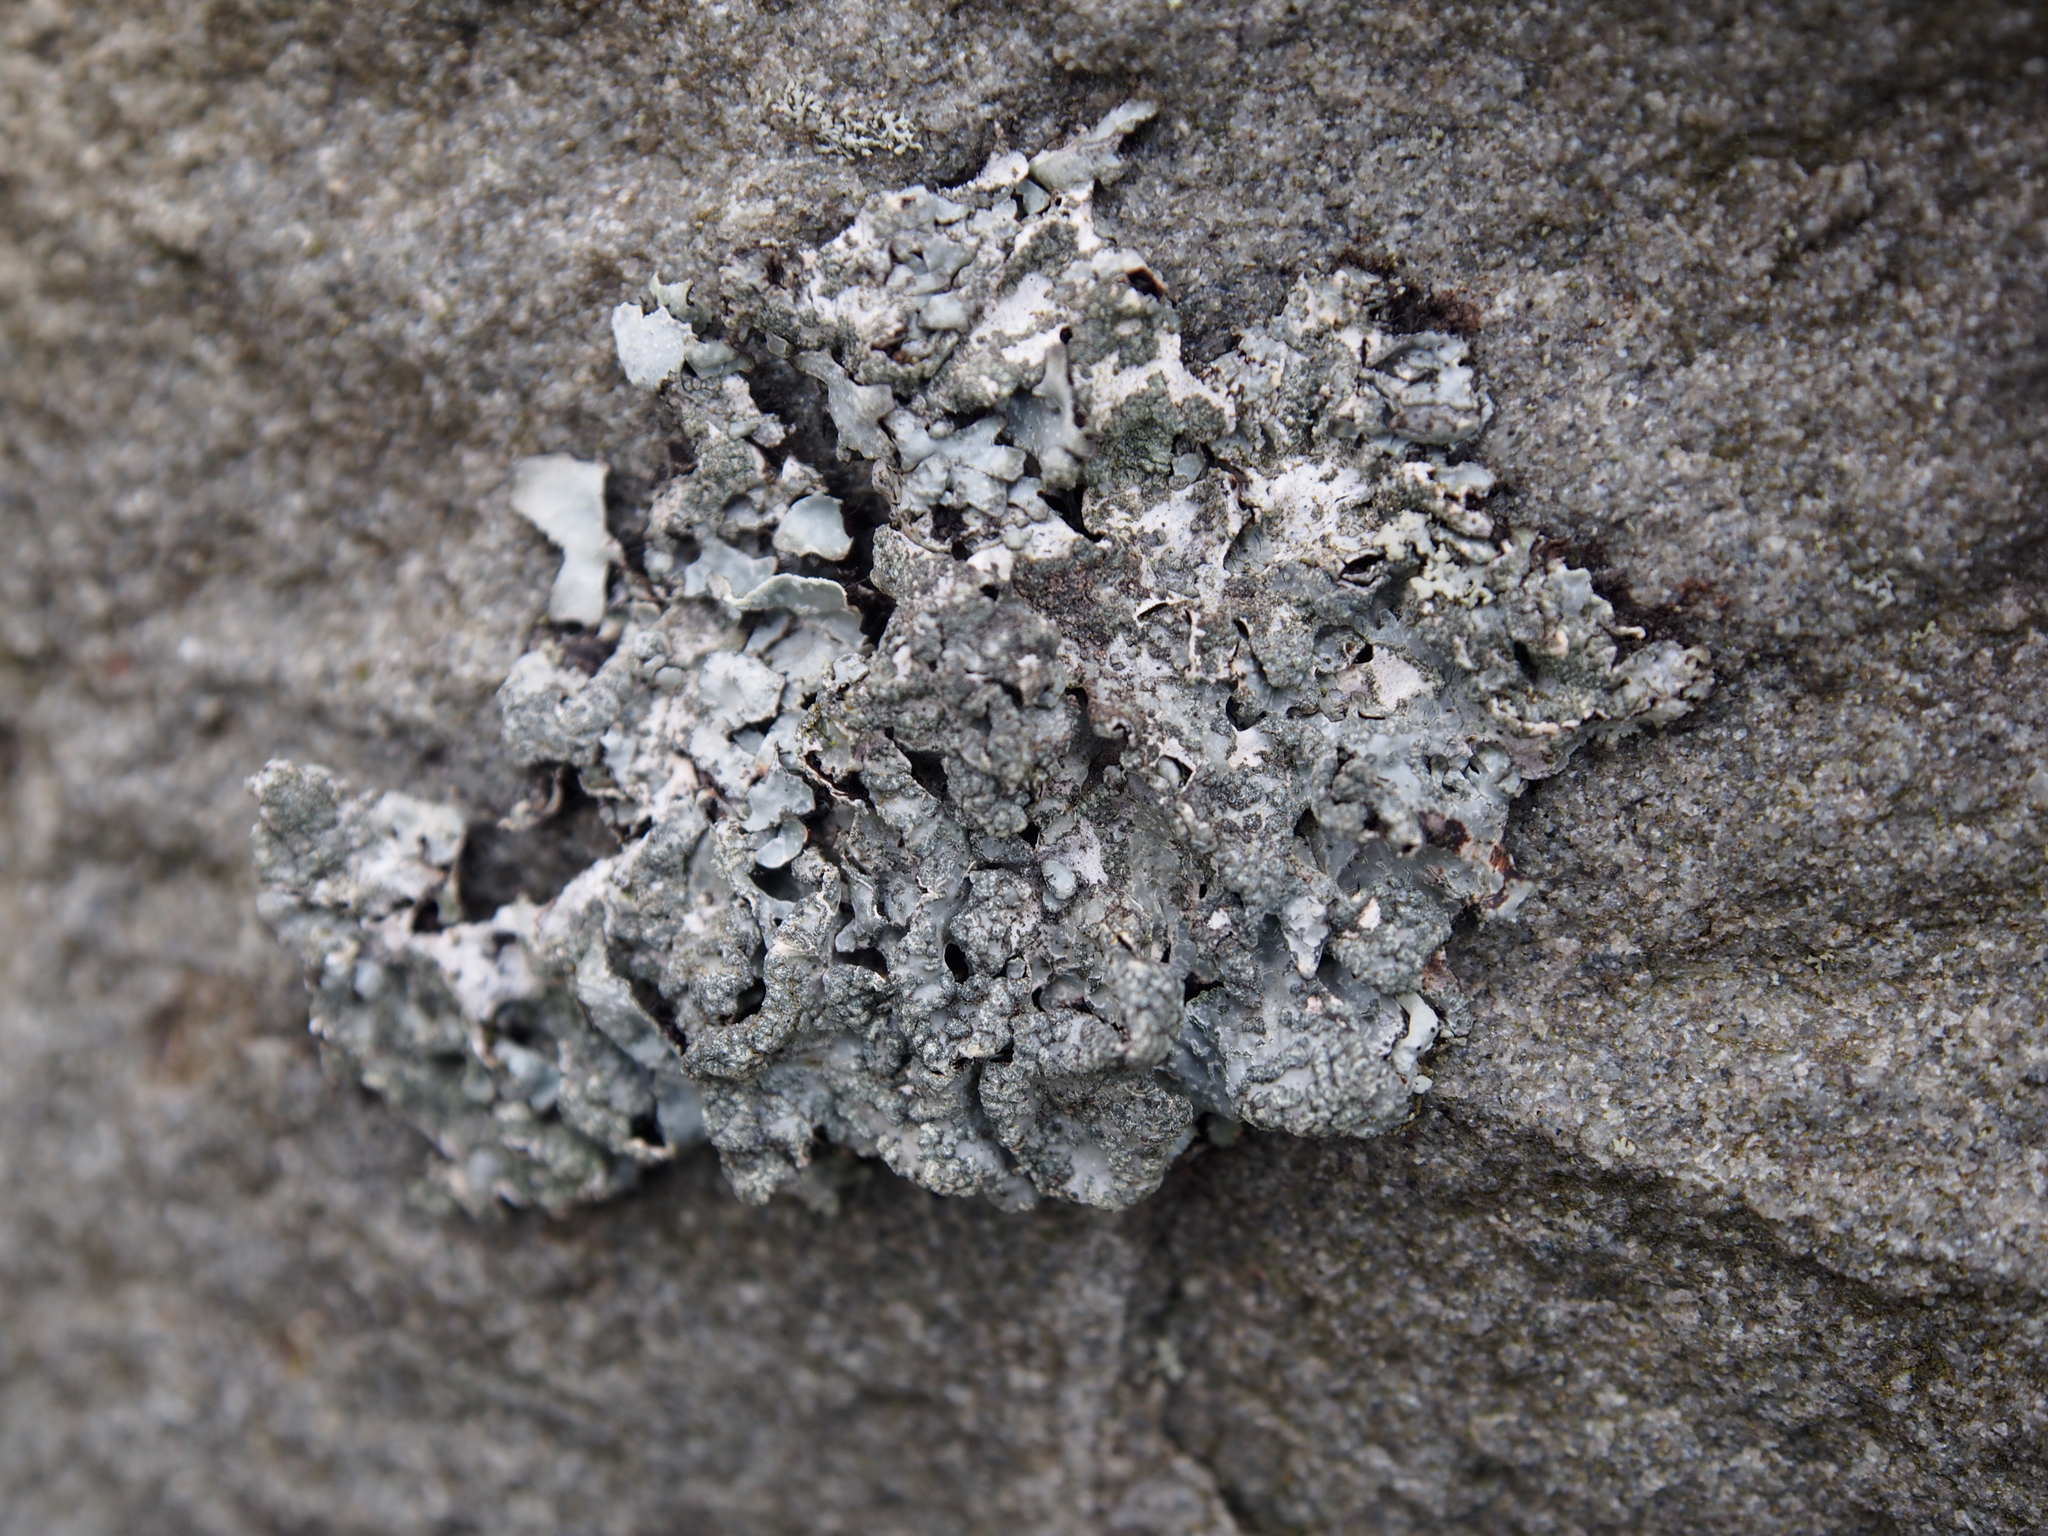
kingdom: Fungi
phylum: Ascomycota
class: Lecanoromycetes
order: Lecanorales
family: Parmeliaceae
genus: Parmelia
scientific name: Parmelia sulcata
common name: Netted shield lichen
